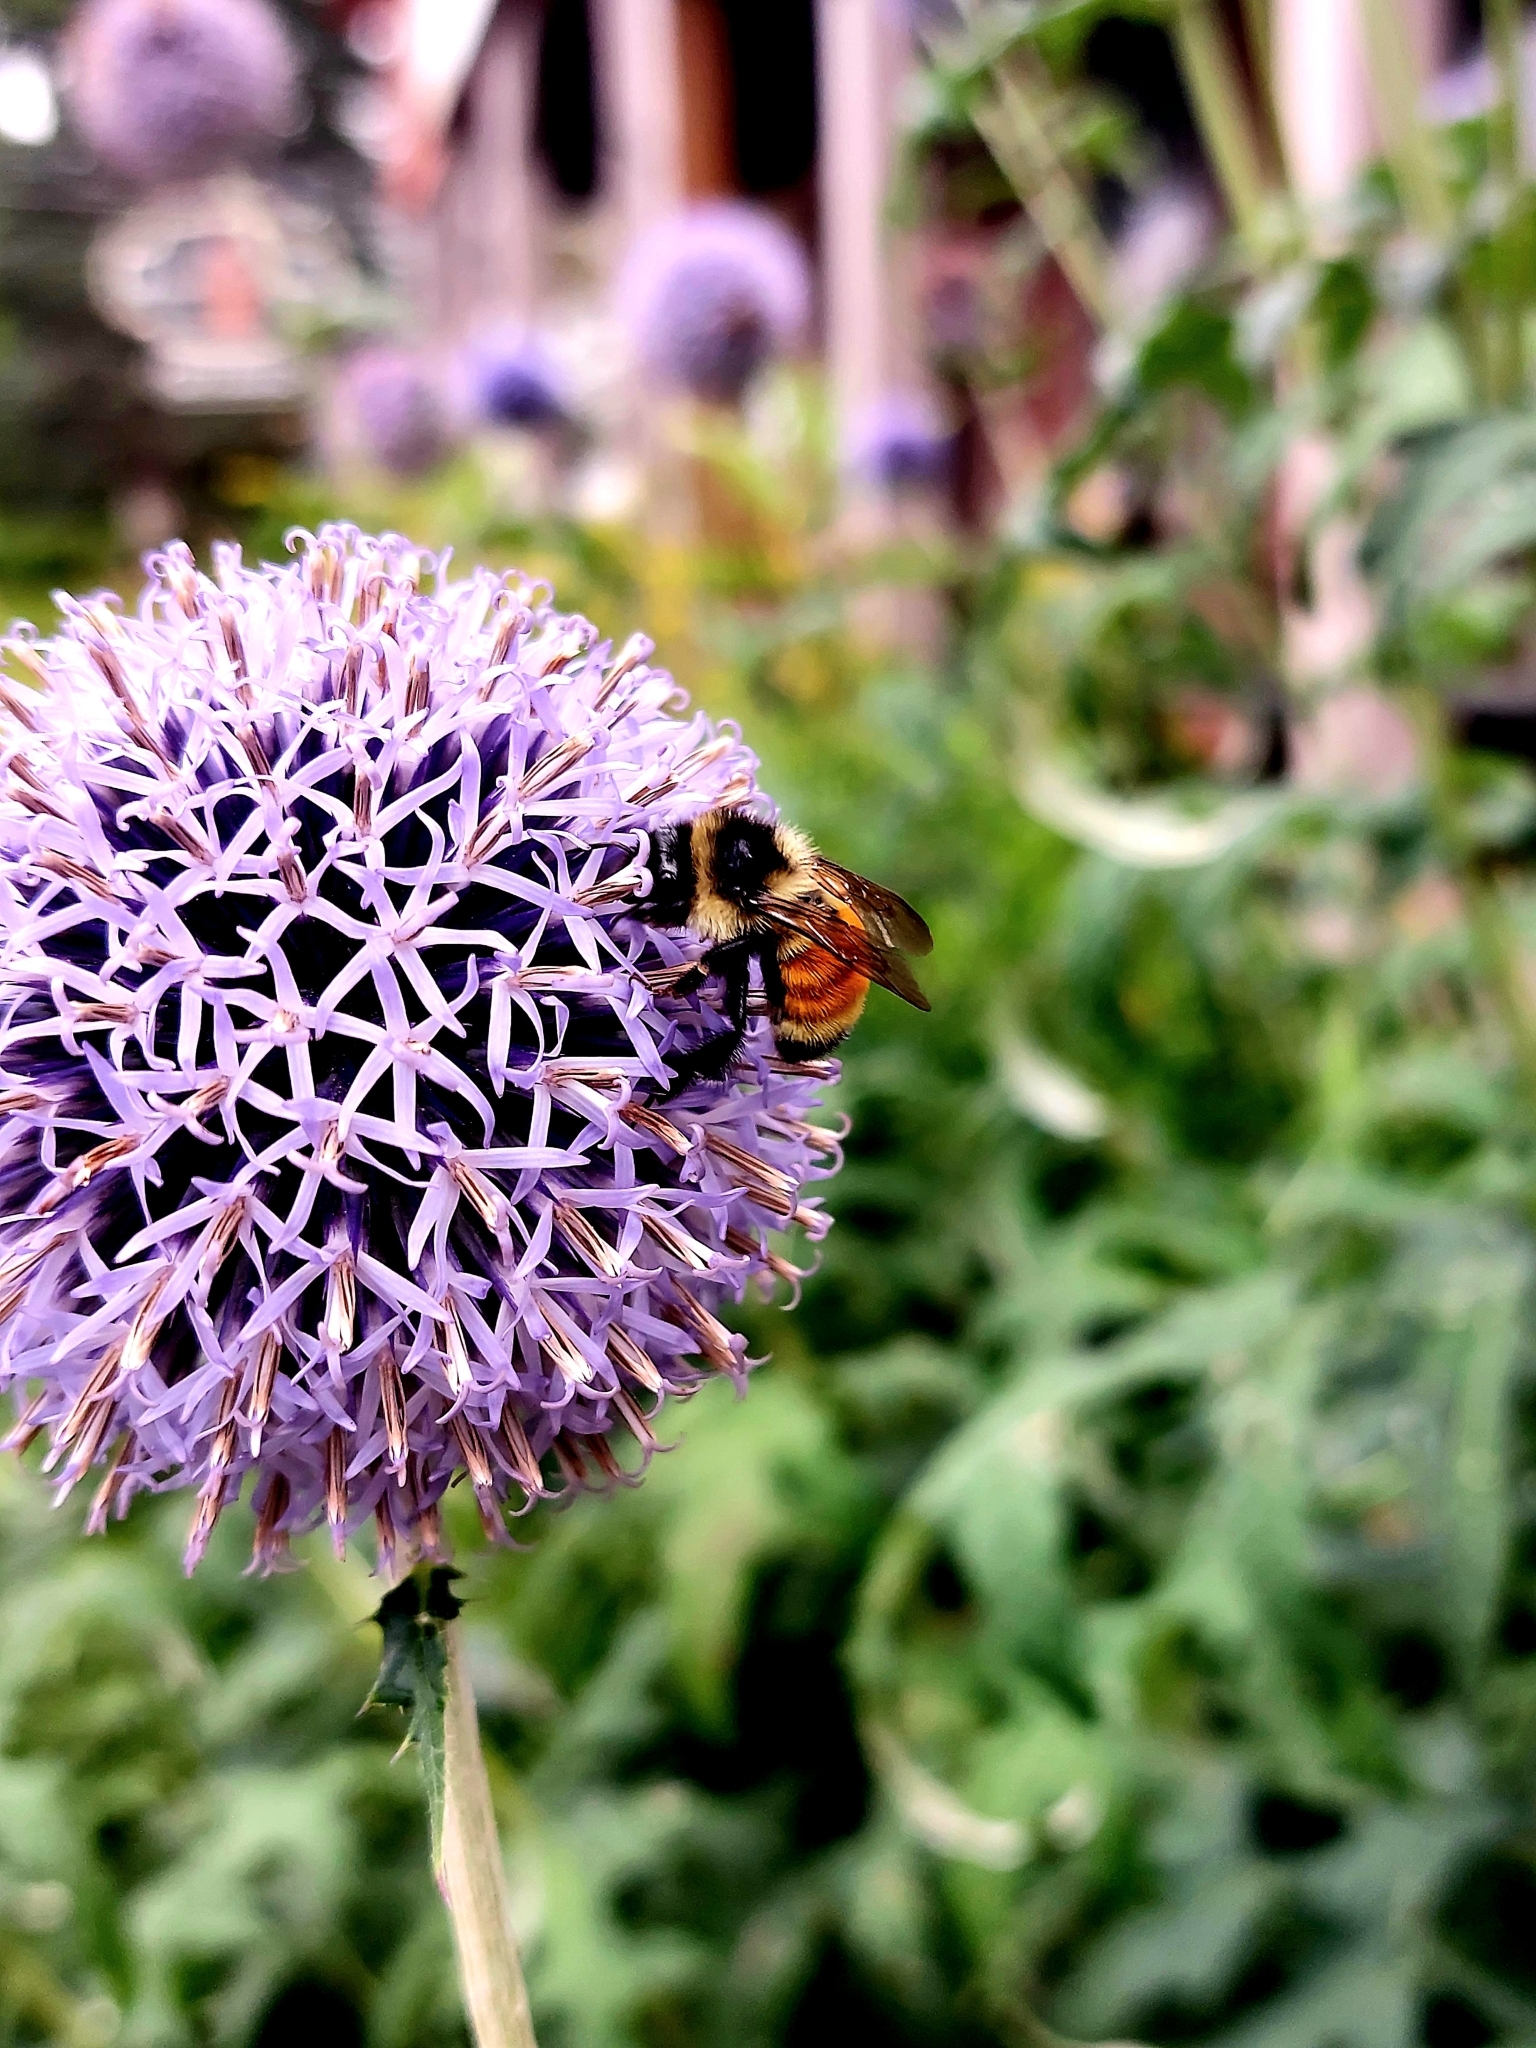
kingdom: Animalia
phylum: Arthropoda
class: Insecta
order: Hymenoptera
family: Apidae
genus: Bombus
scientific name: Bombus ternarius
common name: Tri-colored bumble bee
